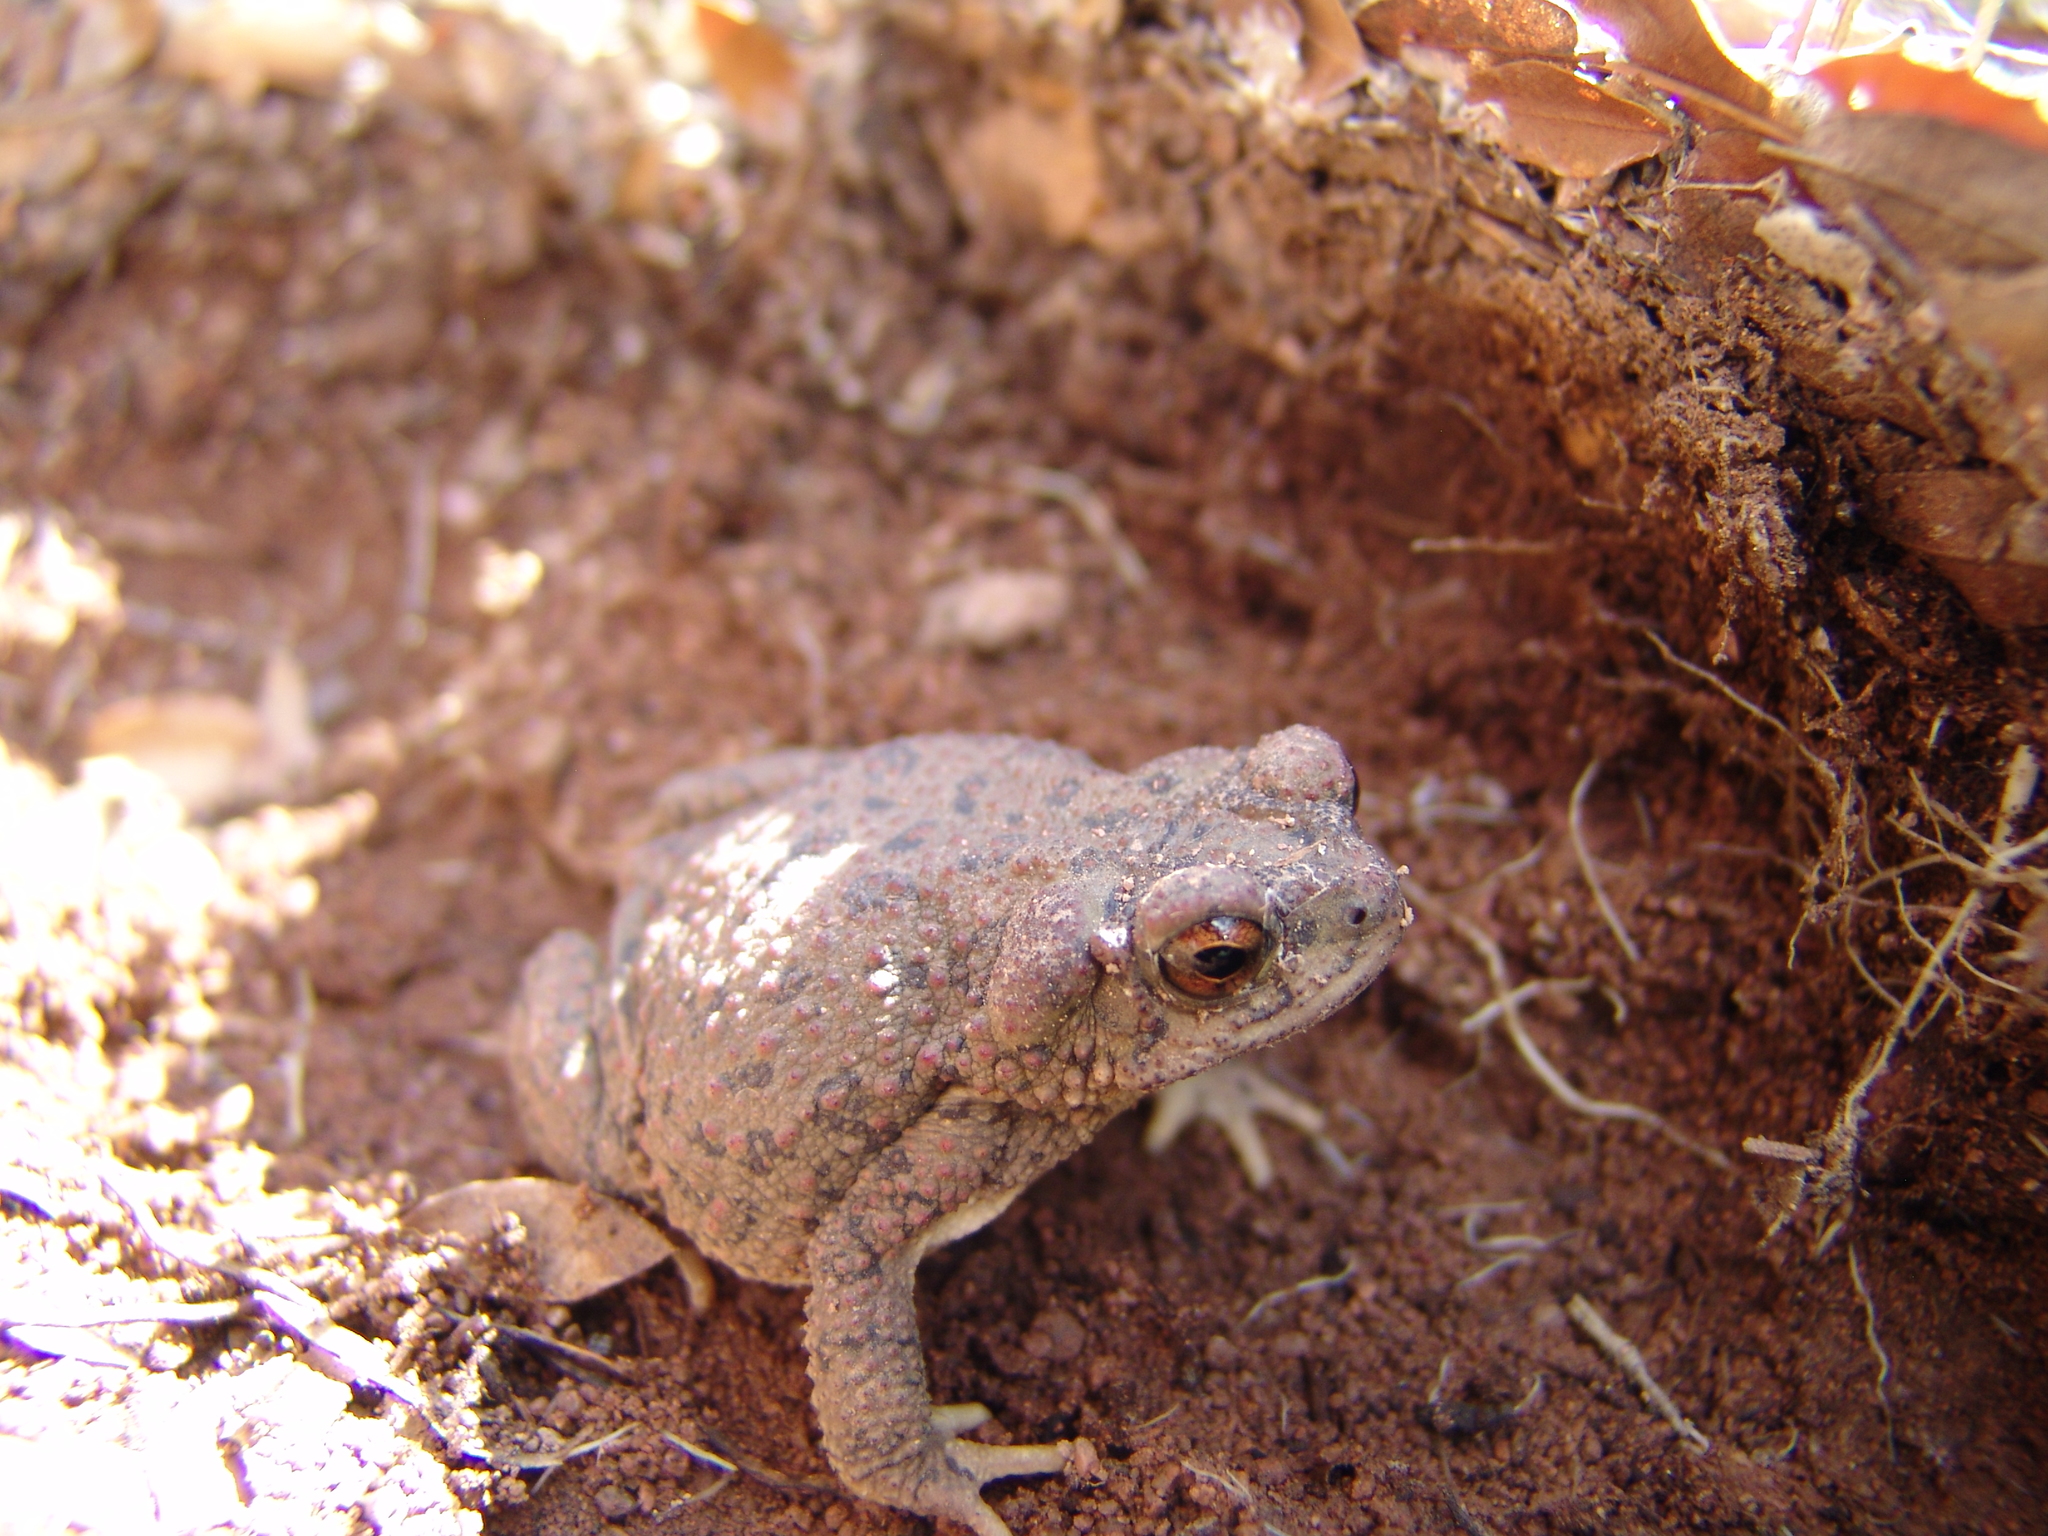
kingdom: Animalia
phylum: Chordata
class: Amphibia
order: Anura
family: Bufonidae
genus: Anaxyrus
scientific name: Anaxyrus punctatus
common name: Red-spotted toad
